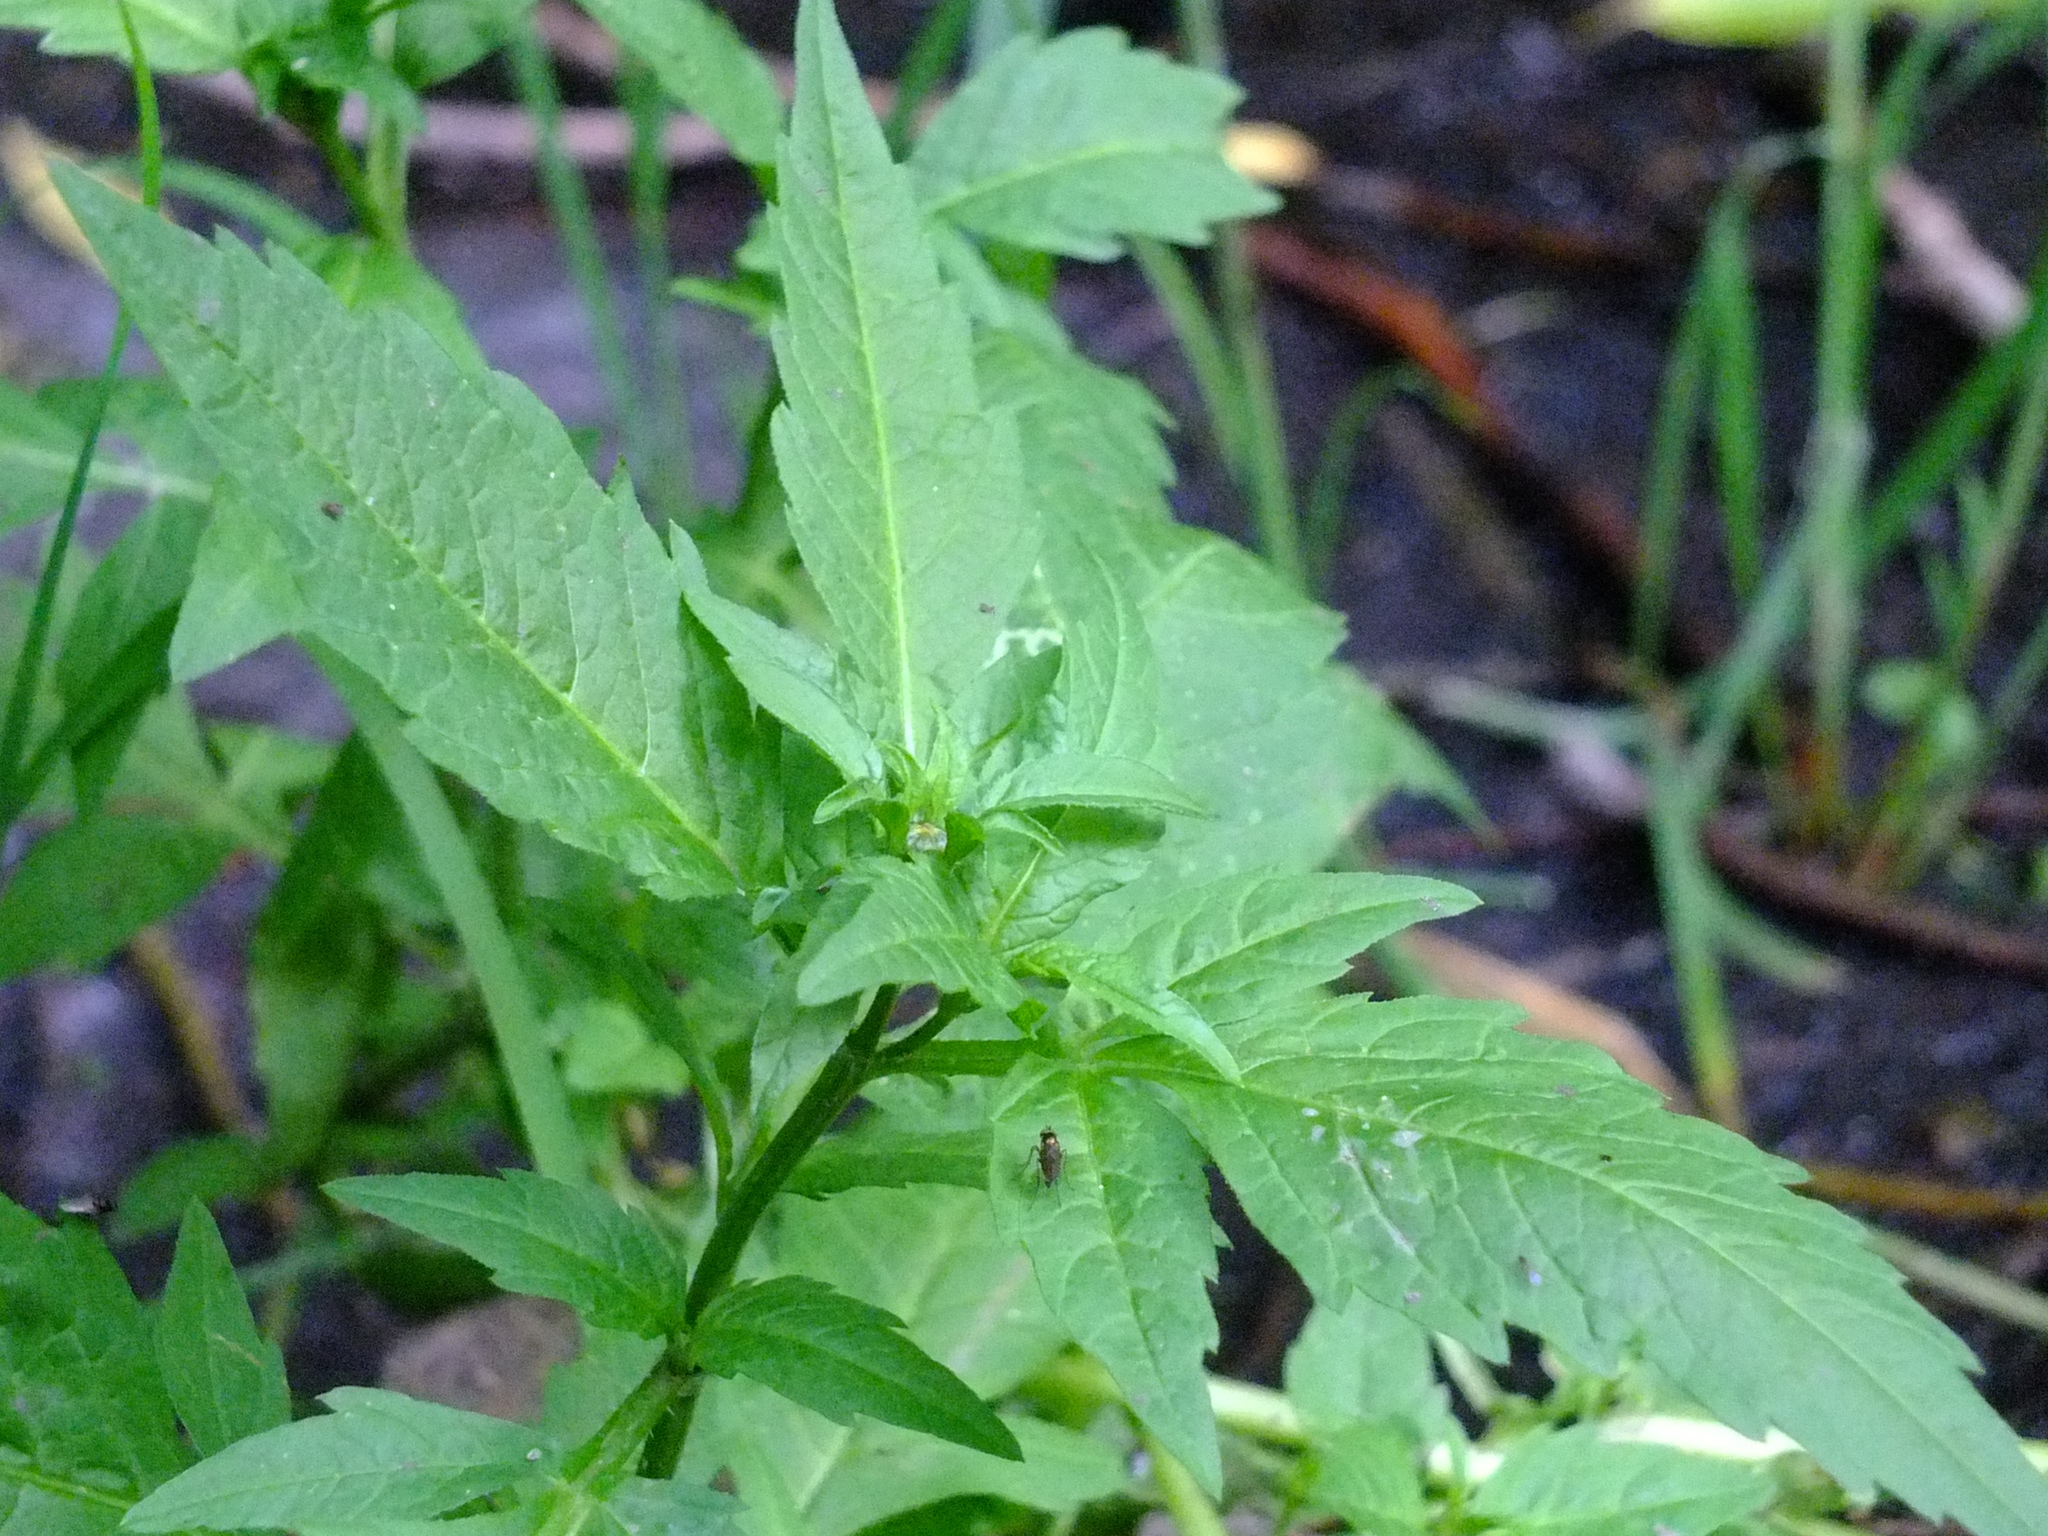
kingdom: Plantae
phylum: Tracheophyta
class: Magnoliopsida
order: Asterales
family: Asteraceae
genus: Bidens
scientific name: Bidens tripartita
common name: Trifid bur-marigold
